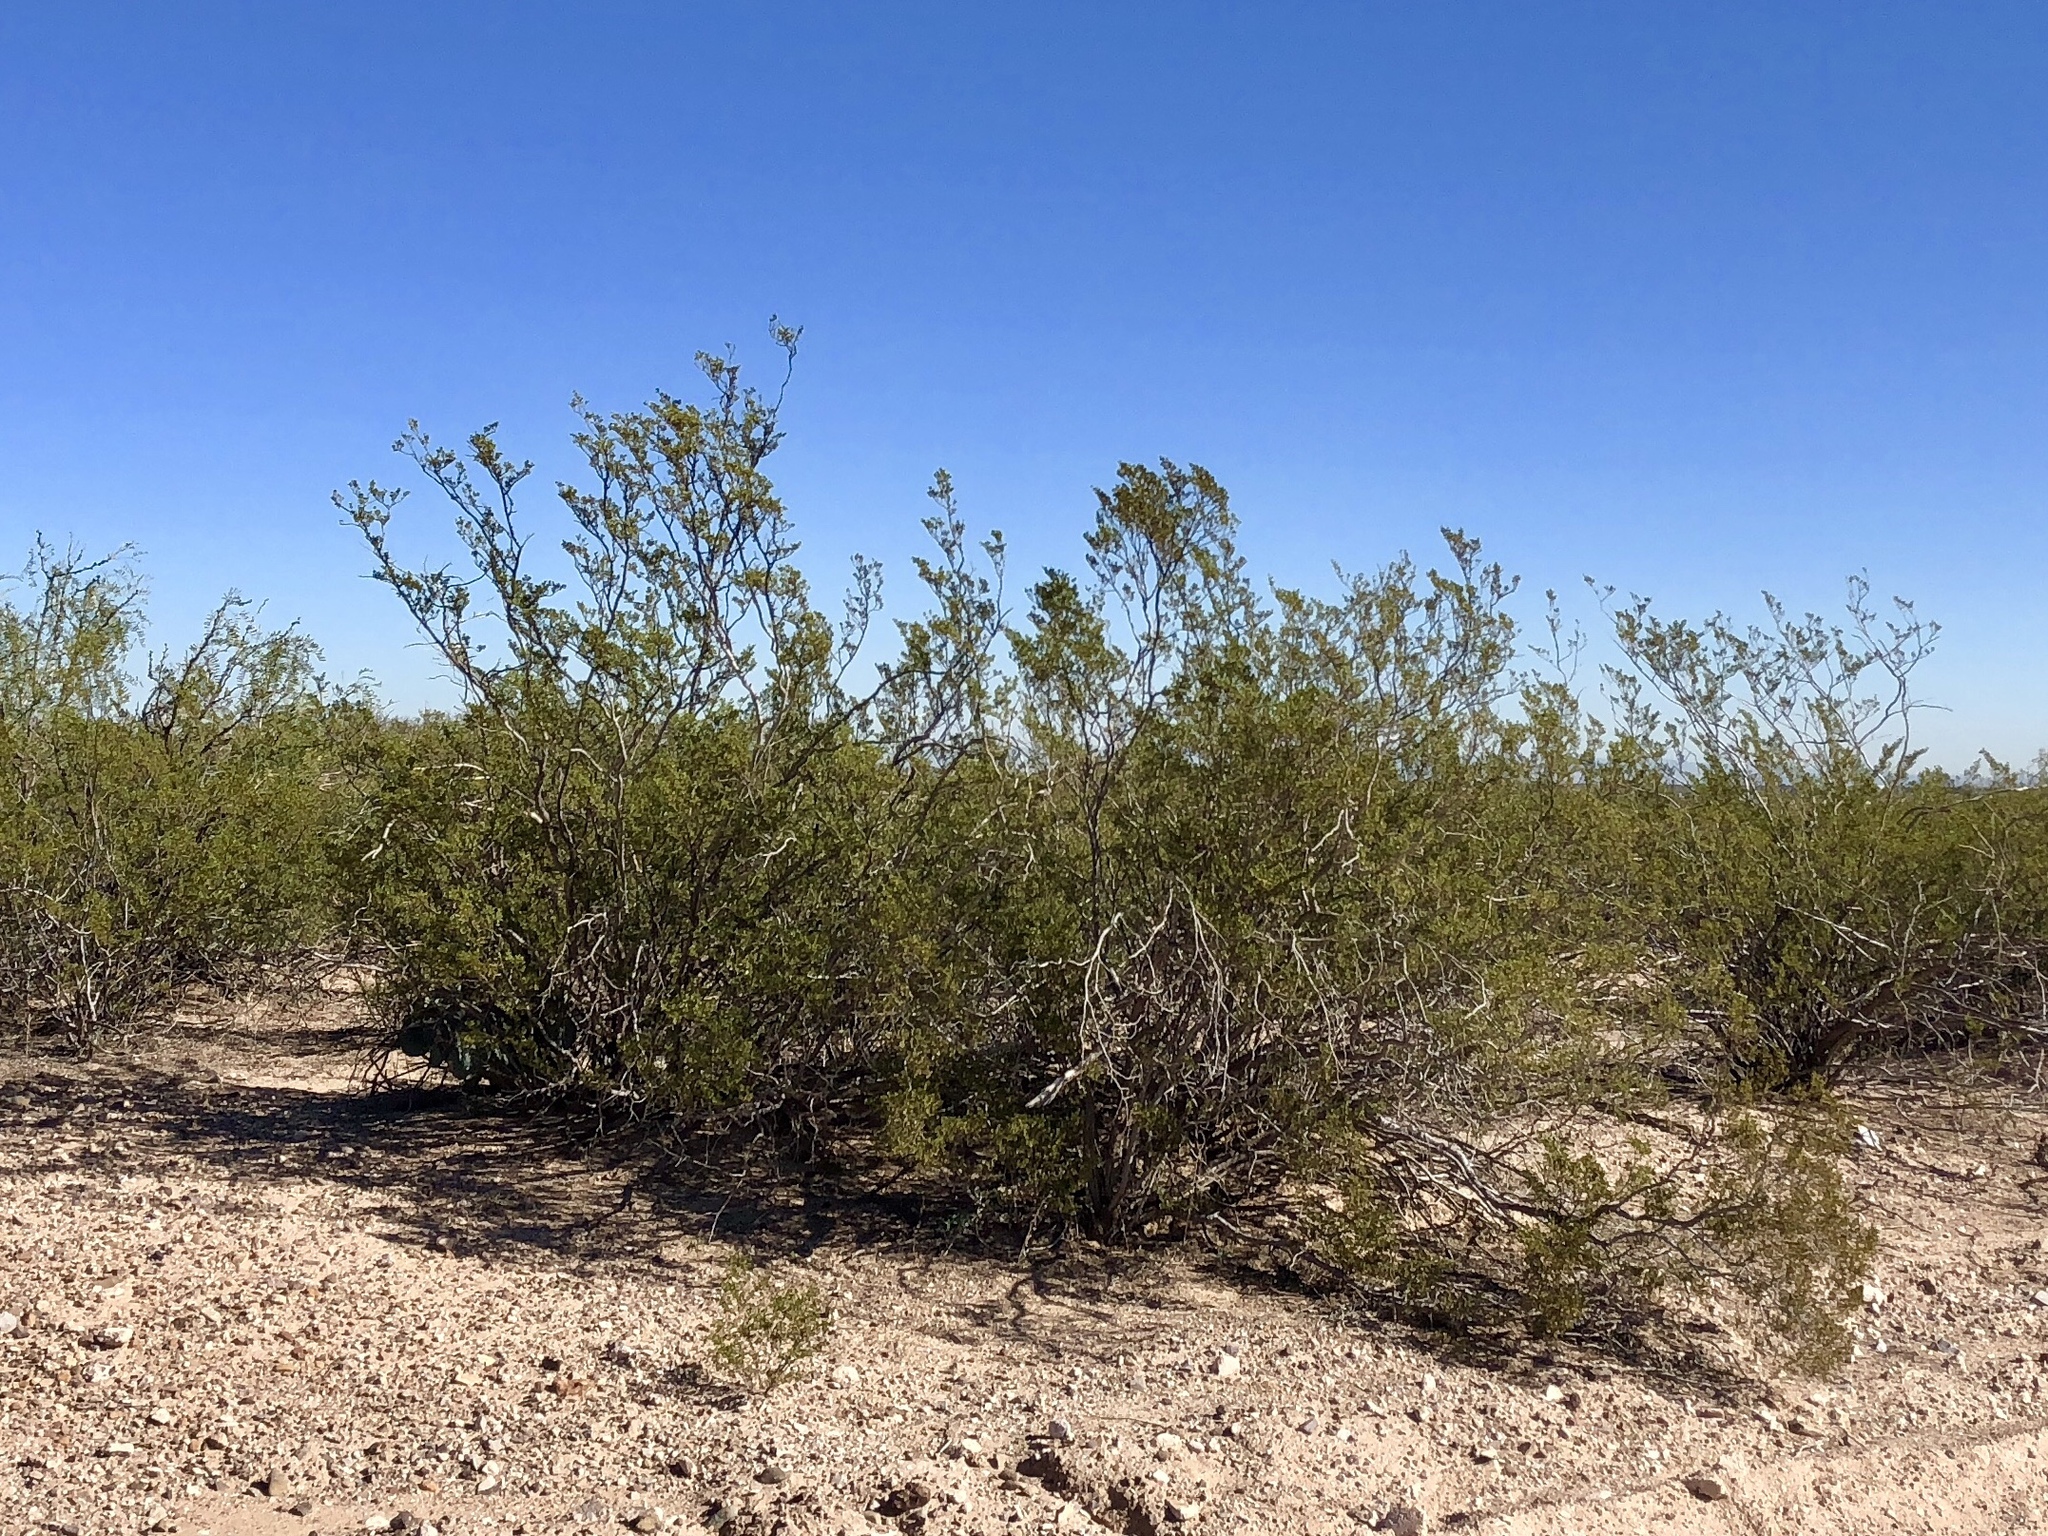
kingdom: Plantae
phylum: Tracheophyta
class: Magnoliopsida
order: Zygophyllales
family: Zygophyllaceae
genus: Larrea
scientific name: Larrea tridentata
